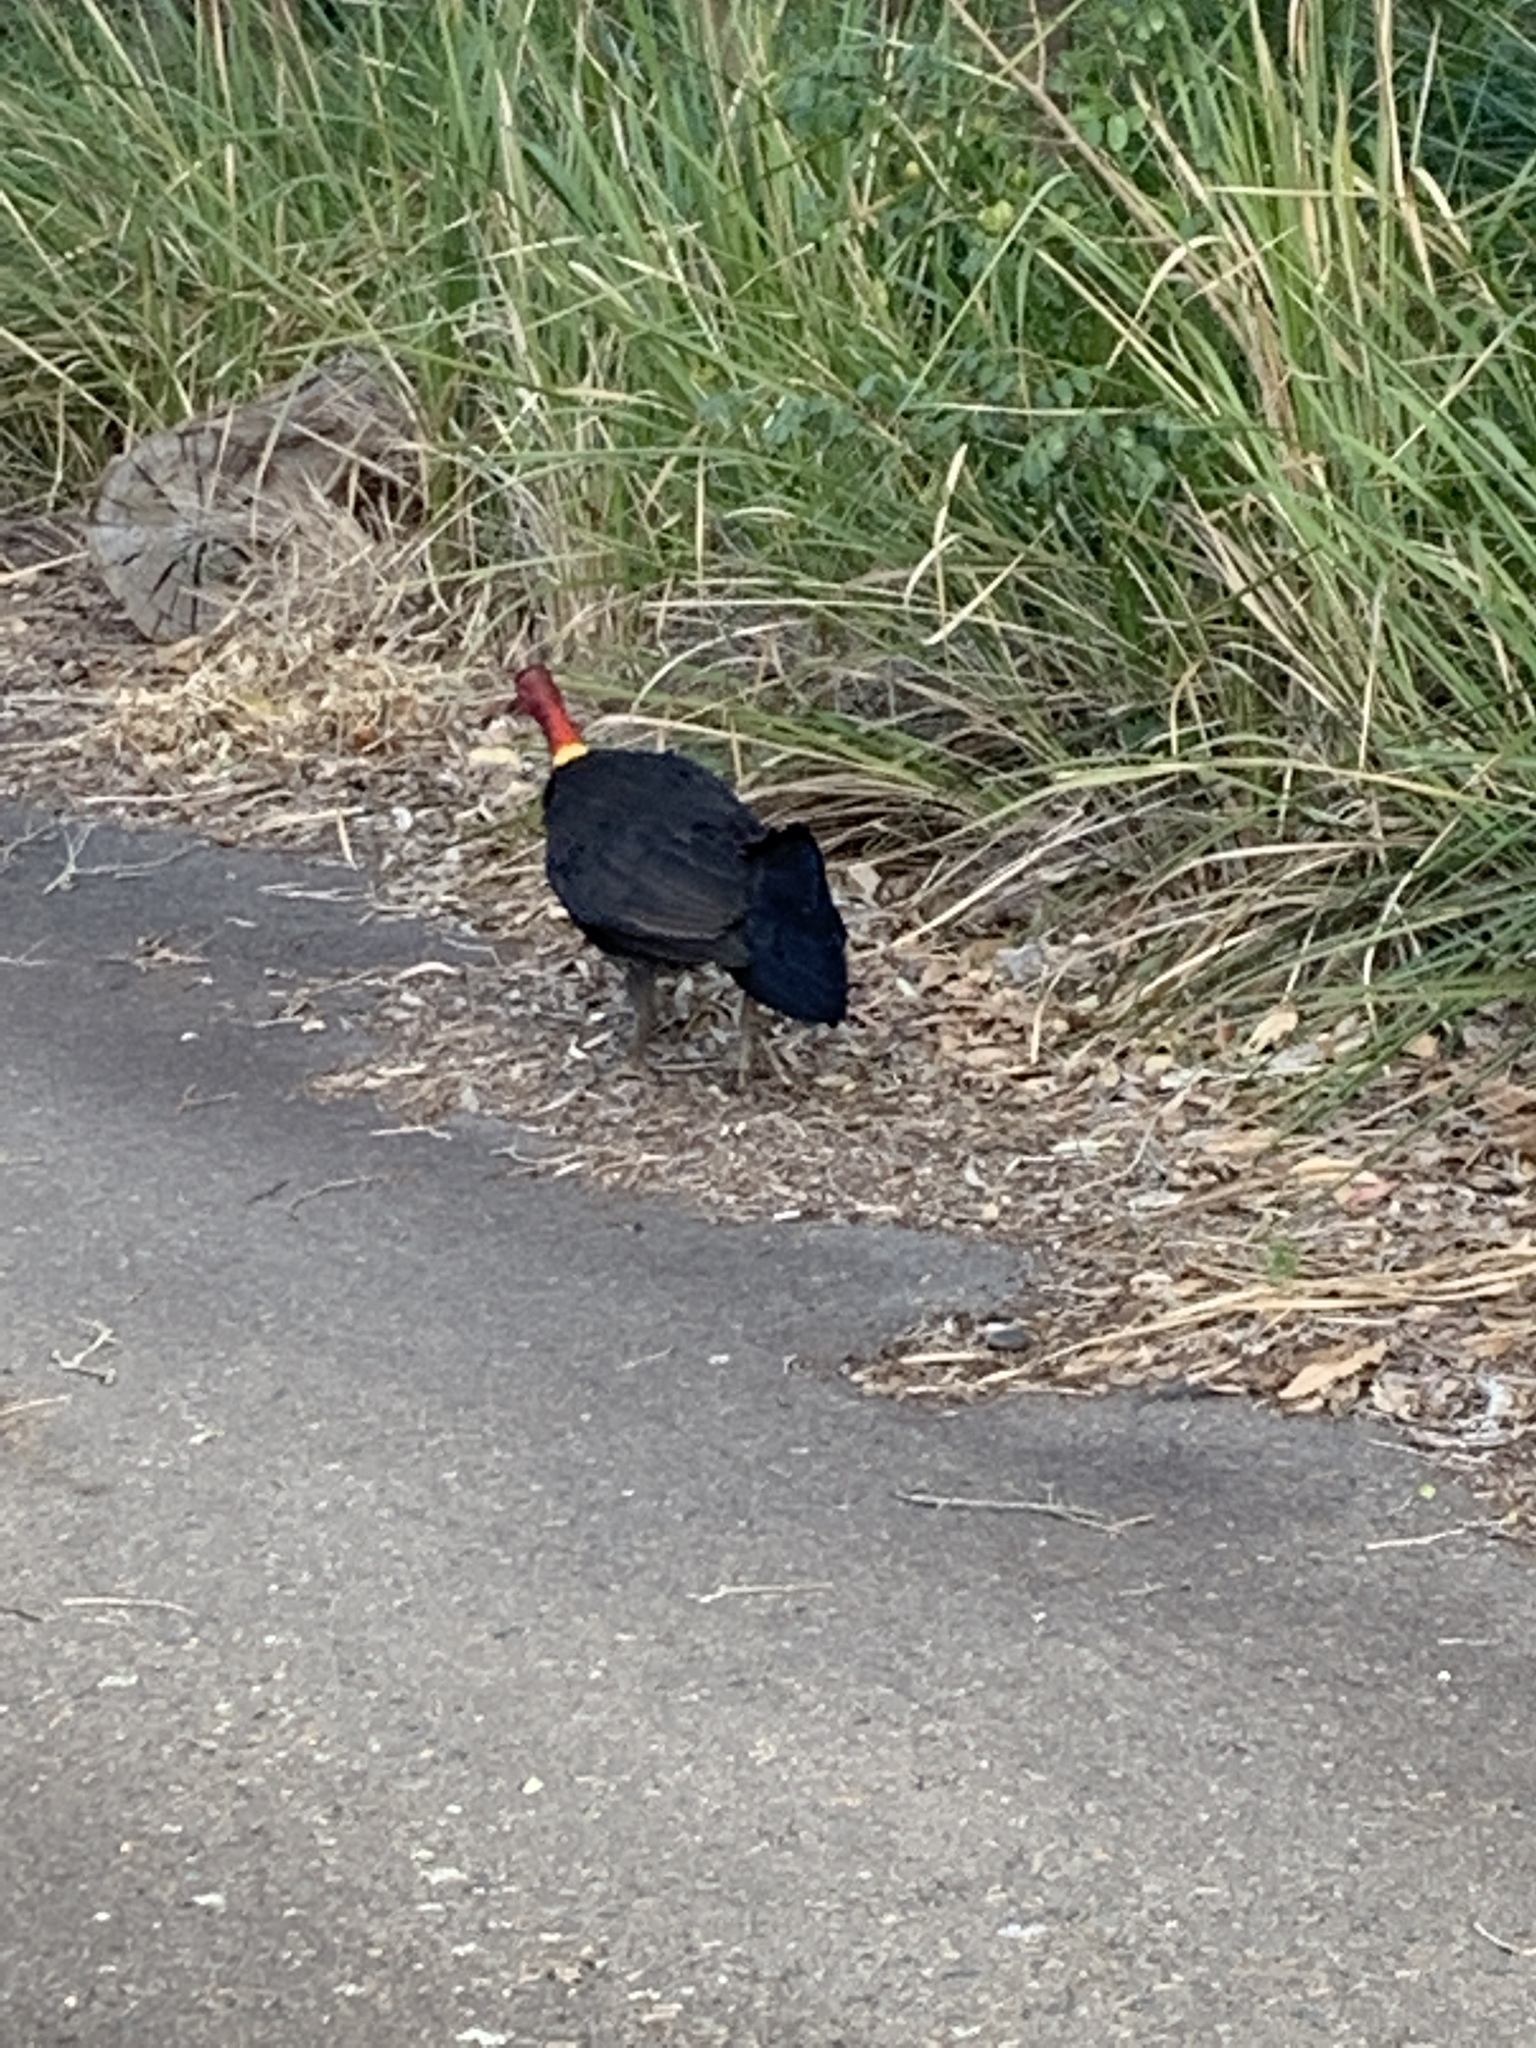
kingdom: Animalia
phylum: Chordata
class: Aves
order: Galliformes
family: Megapodiidae
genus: Alectura
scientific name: Alectura lathami
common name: Australian brushturkey
